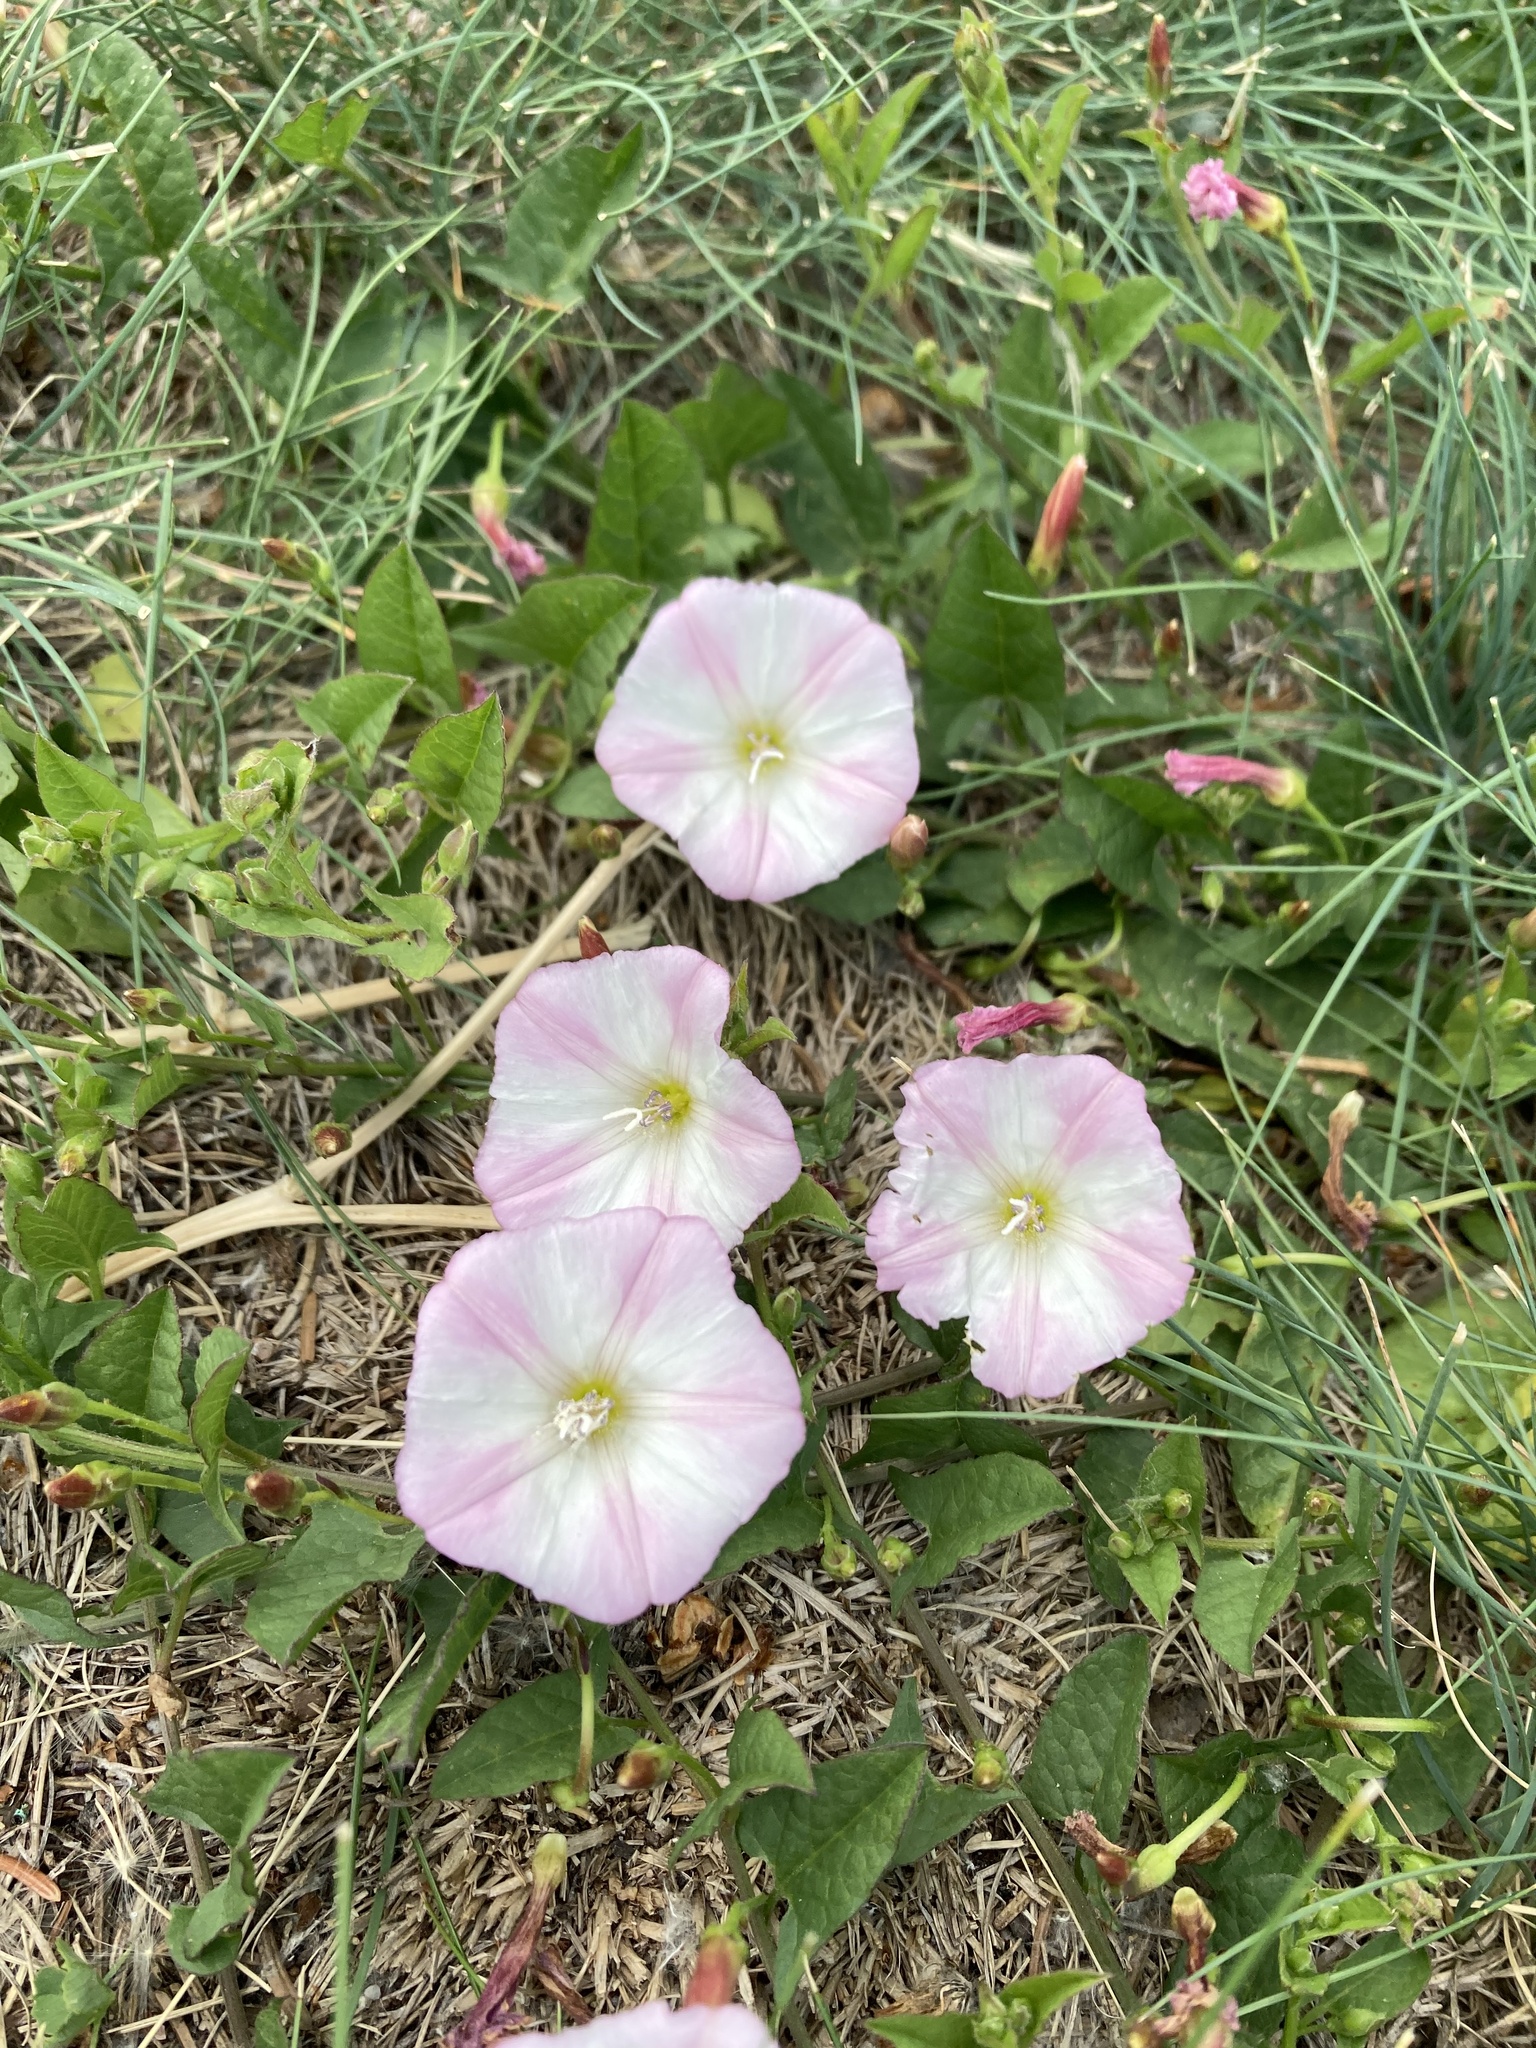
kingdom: Plantae
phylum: Tracheophyta
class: Magnoliopsida
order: Solanales
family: Convolvulaceae
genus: Convolvulus
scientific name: Convolvulus arvensis
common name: Field bindweed
